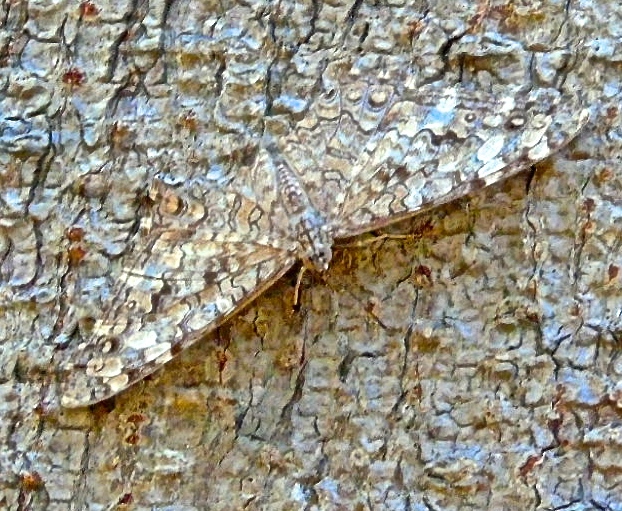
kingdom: Animalia
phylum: Arthropoda
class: Insecta
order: Lepidoptera
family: Nymphalidae
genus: Hamadryas
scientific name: Hamadryas
